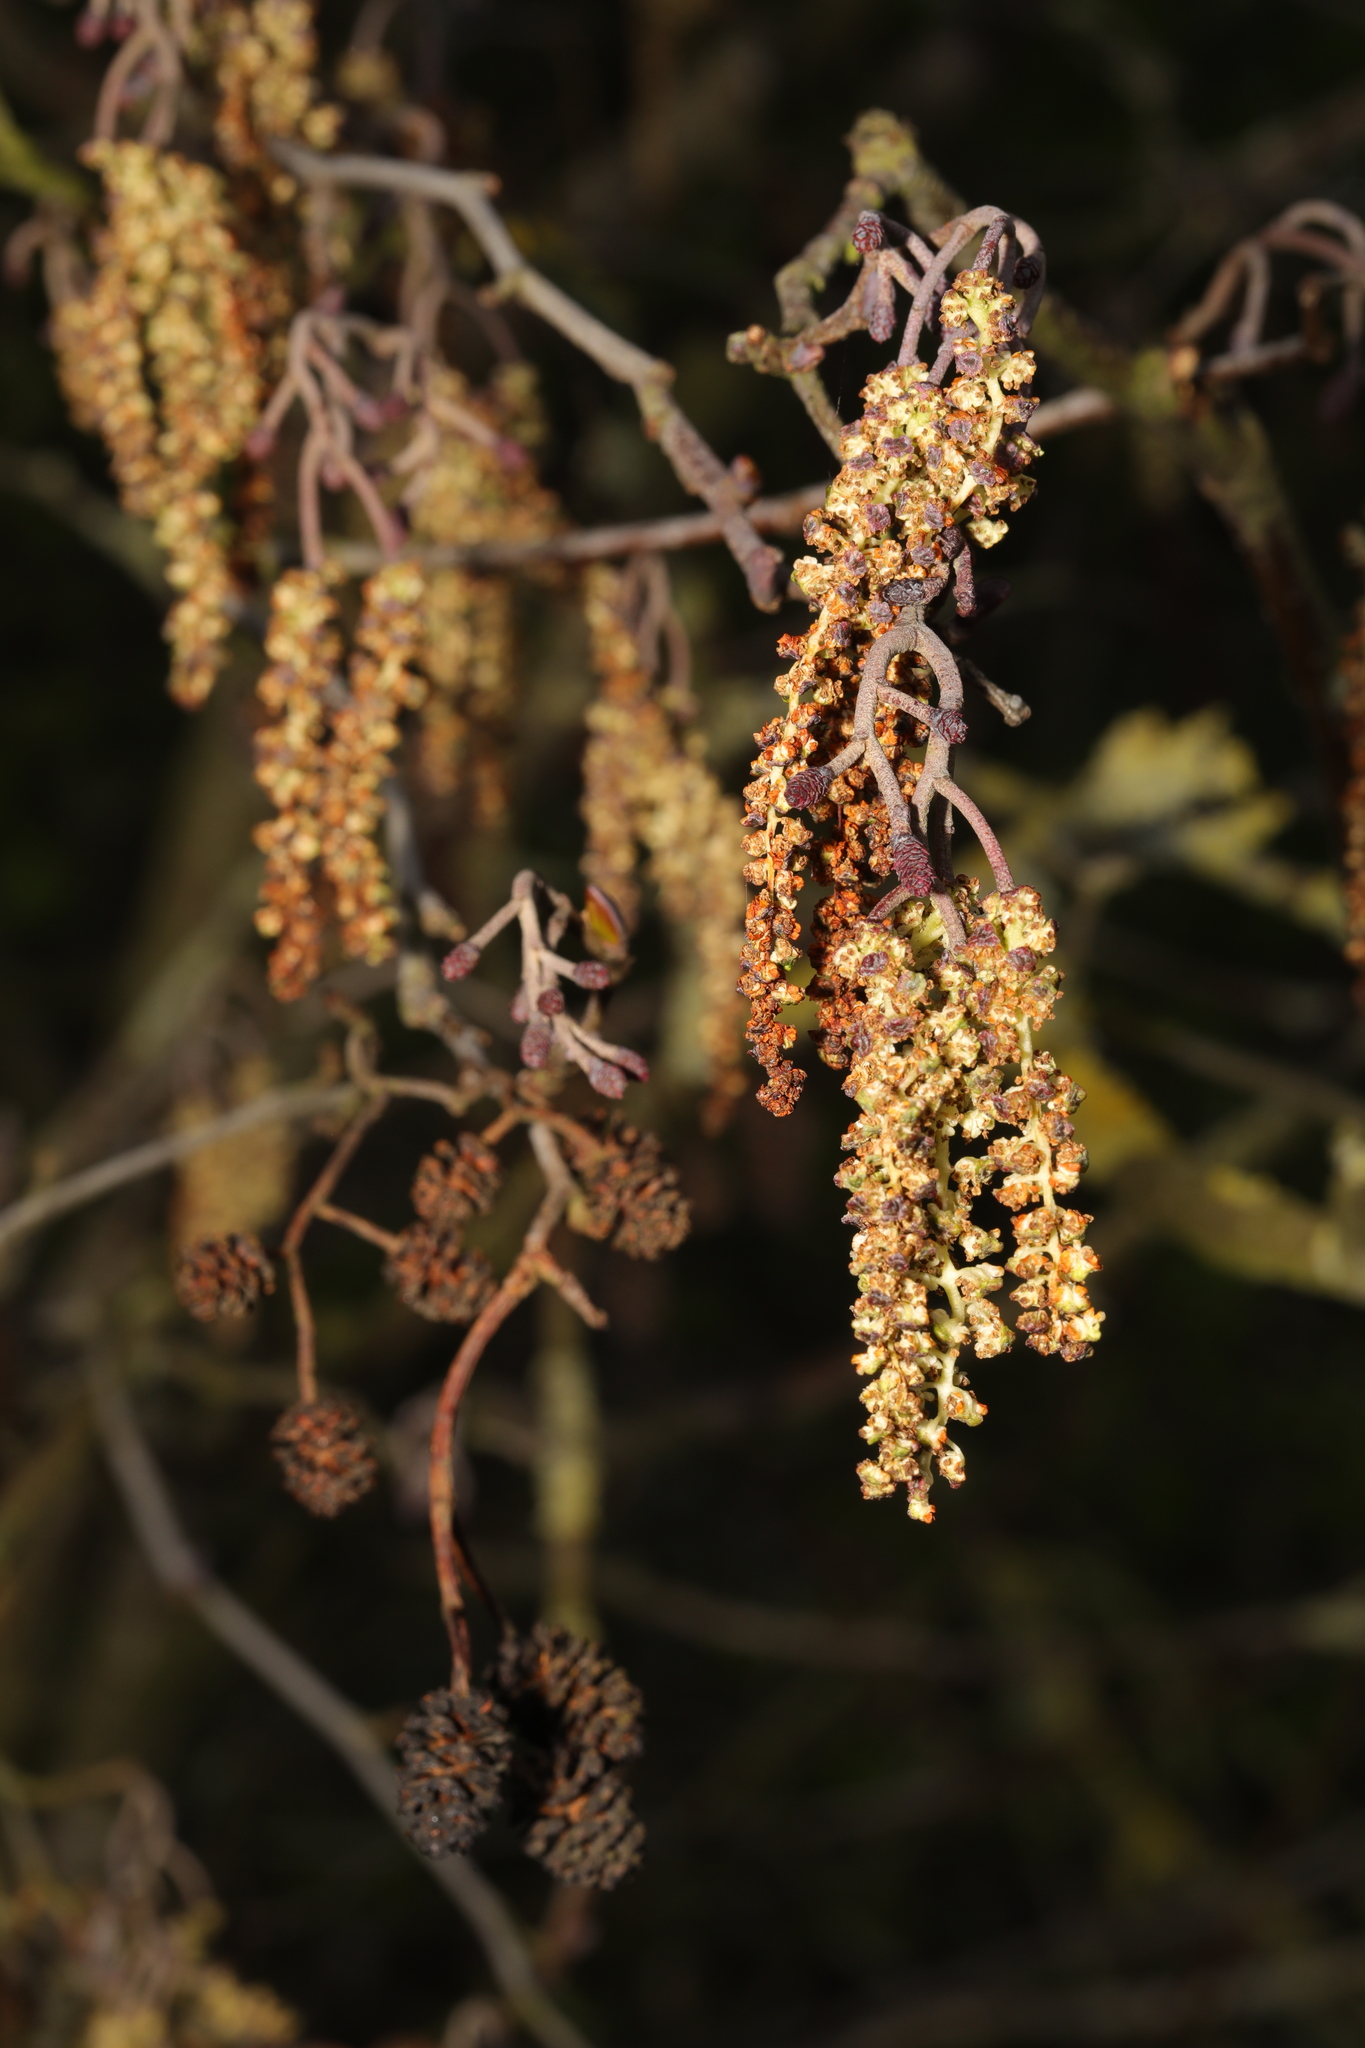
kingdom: Plantae
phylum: Tracheophyta
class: Magnoliopsida
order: Fagales
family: Betulaceae
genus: Alnus
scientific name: Alnus glutinosa
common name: Black alder
